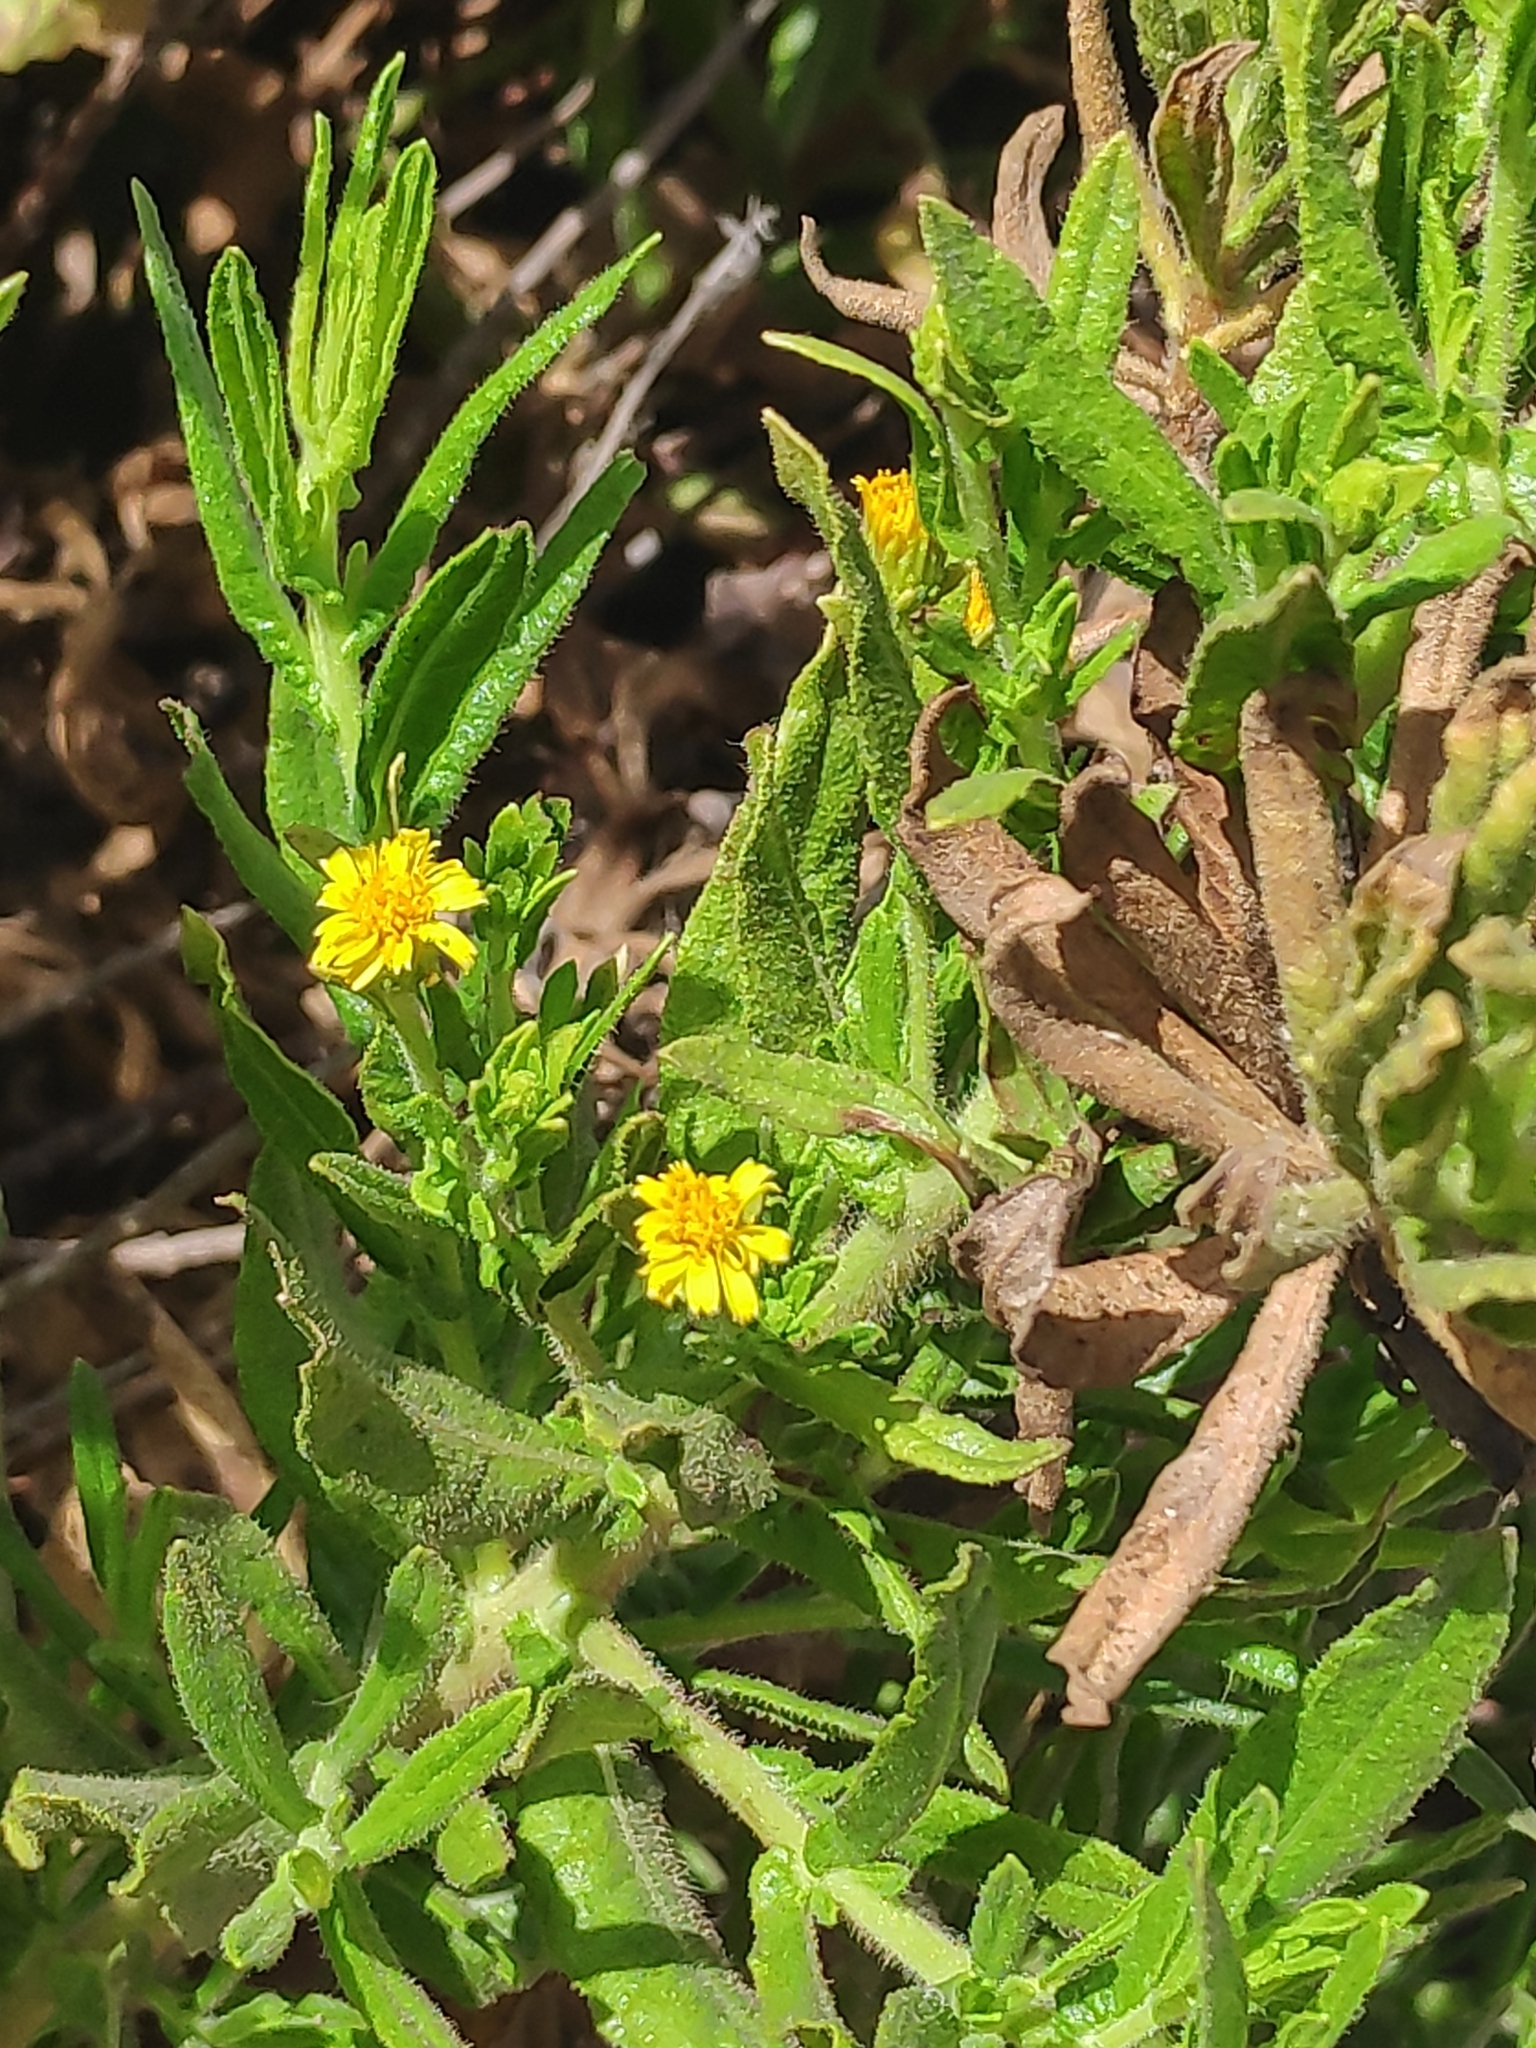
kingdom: Plantae
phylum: Tracheophyta
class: Magnoliopsida
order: Asterales
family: Asteraceae
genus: Dittrichia
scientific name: Dittrichia viscosa
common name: Woody fleabane
